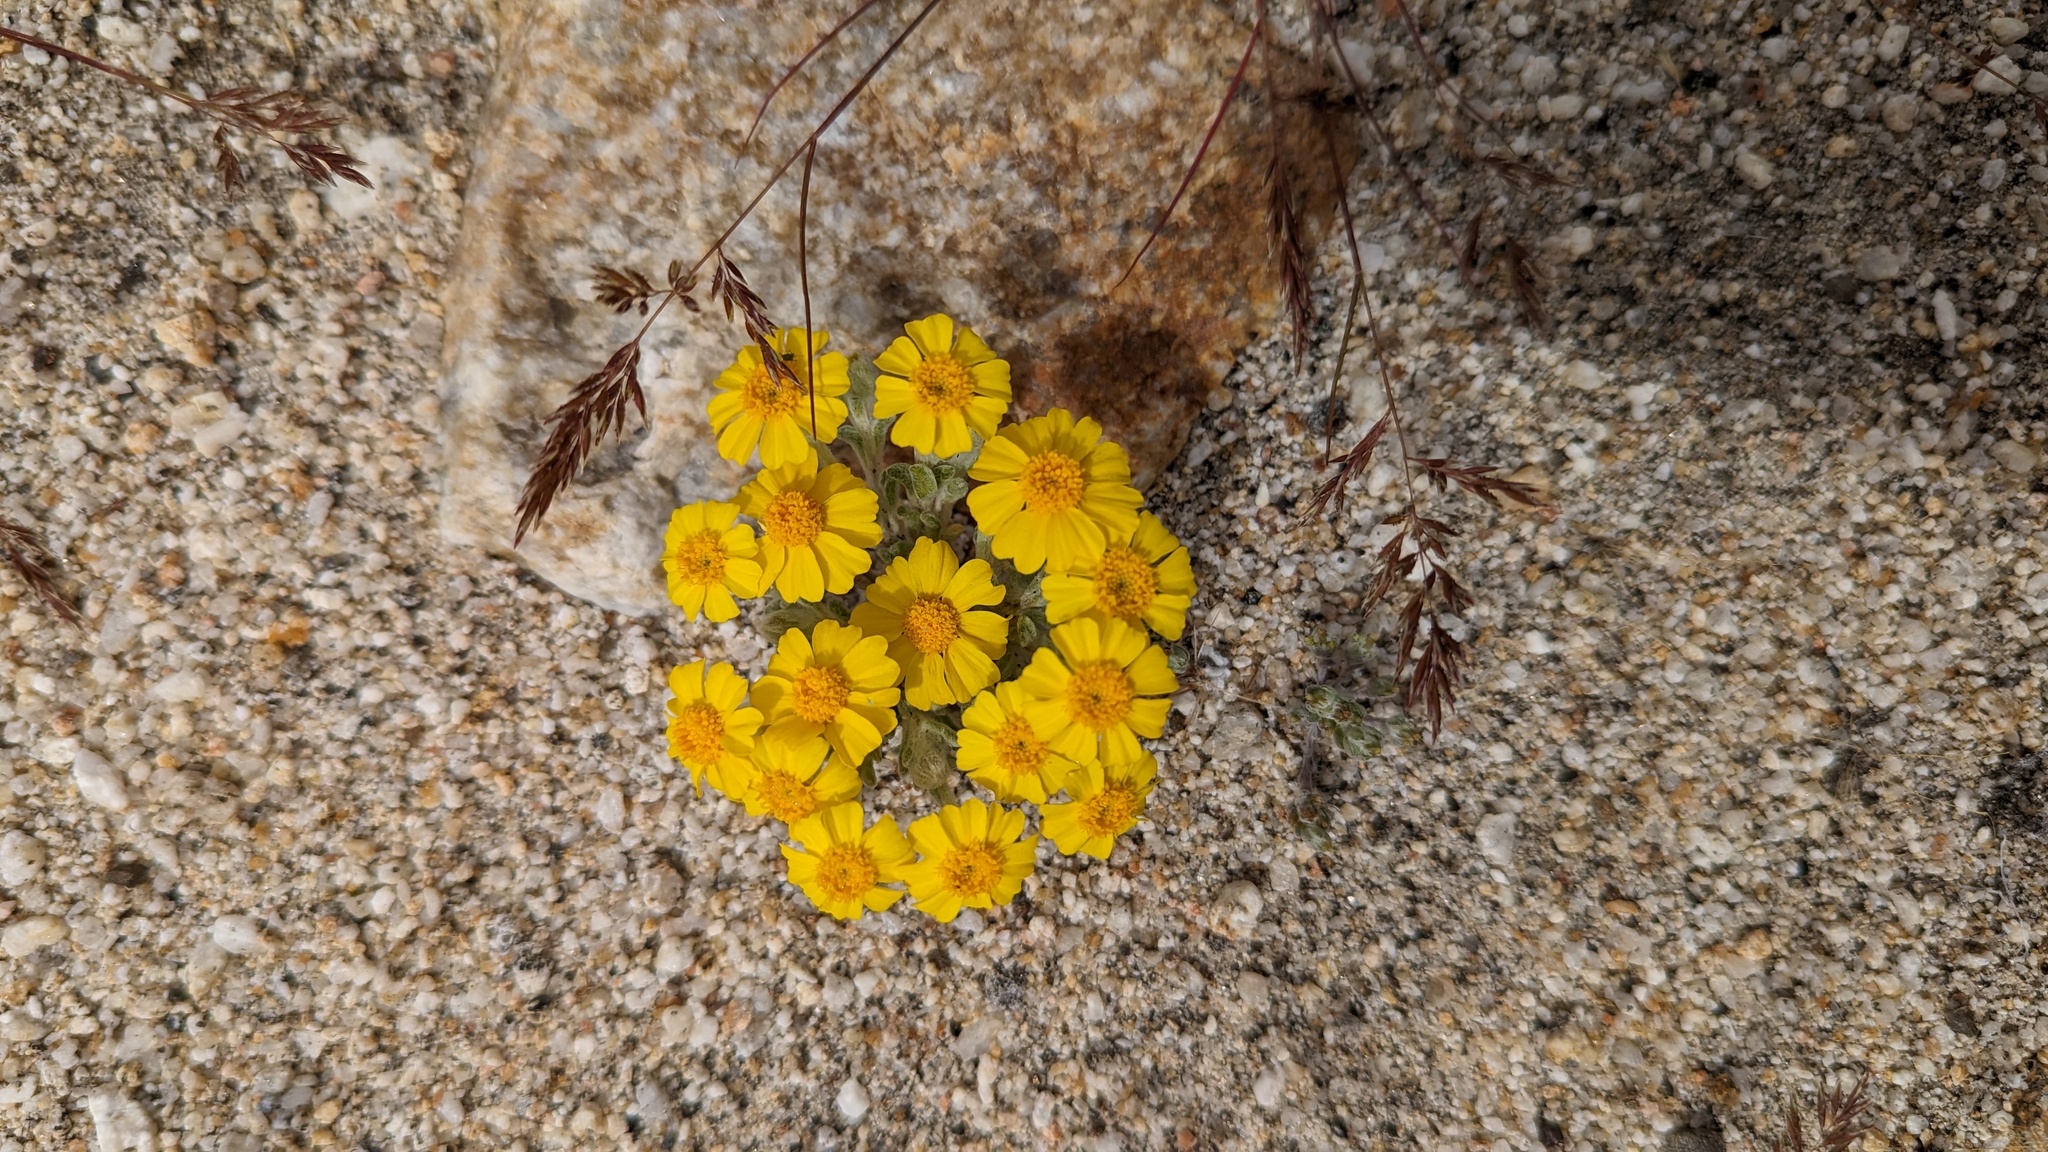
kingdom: Plantae
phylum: Tracheophyta
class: Magnoliopsida
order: Asterales
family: Asteraceae
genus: Eriophyllum
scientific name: Eriophyllum wallacei
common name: Wallace's woolly daisy
